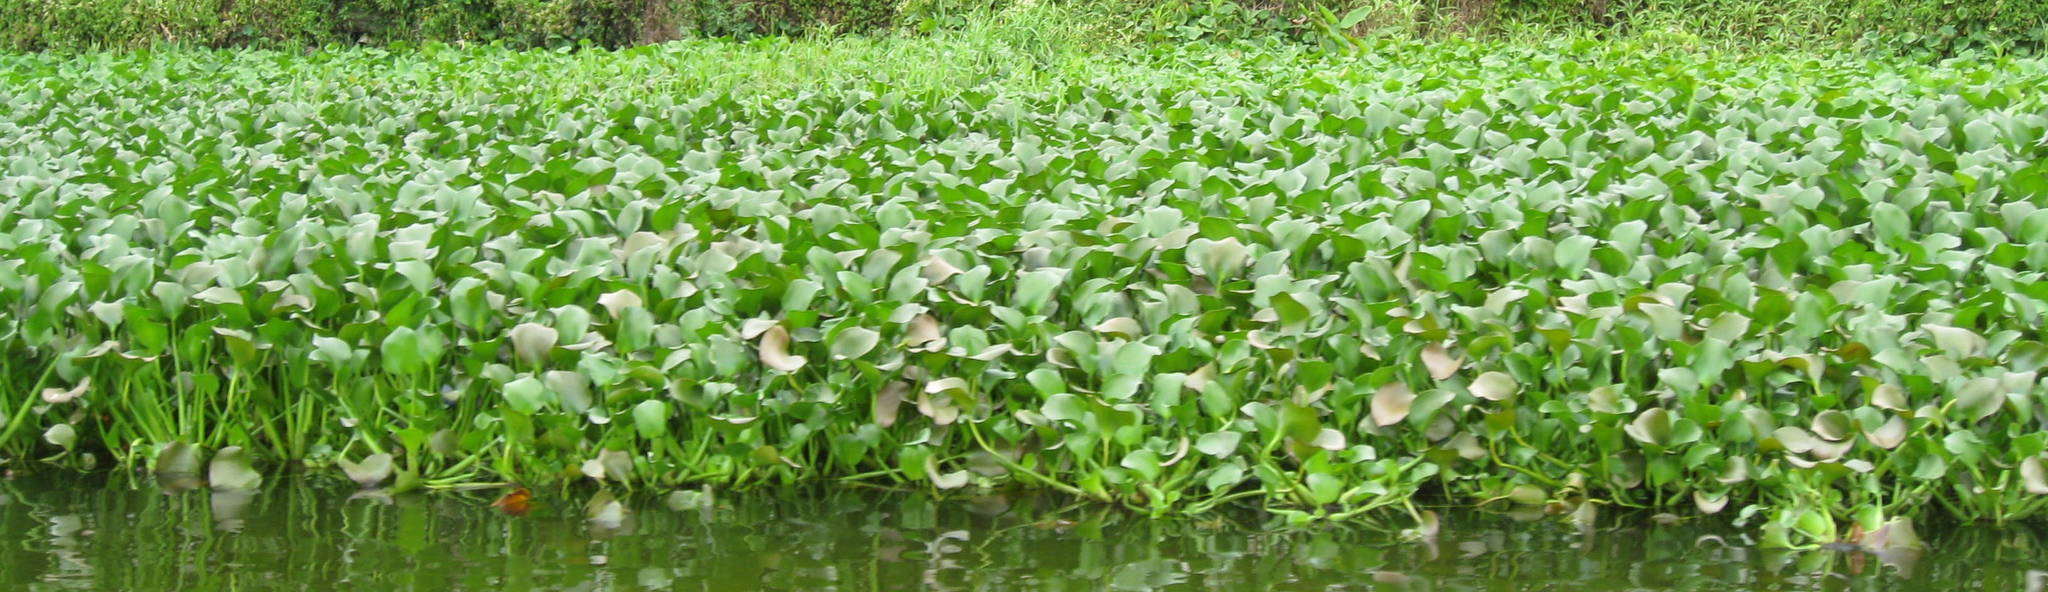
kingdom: Plantae
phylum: Tracheophyta
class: Liliopsida
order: Commelinales
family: Pontederiaceae
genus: Pontederia
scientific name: Pontederia crassipes
